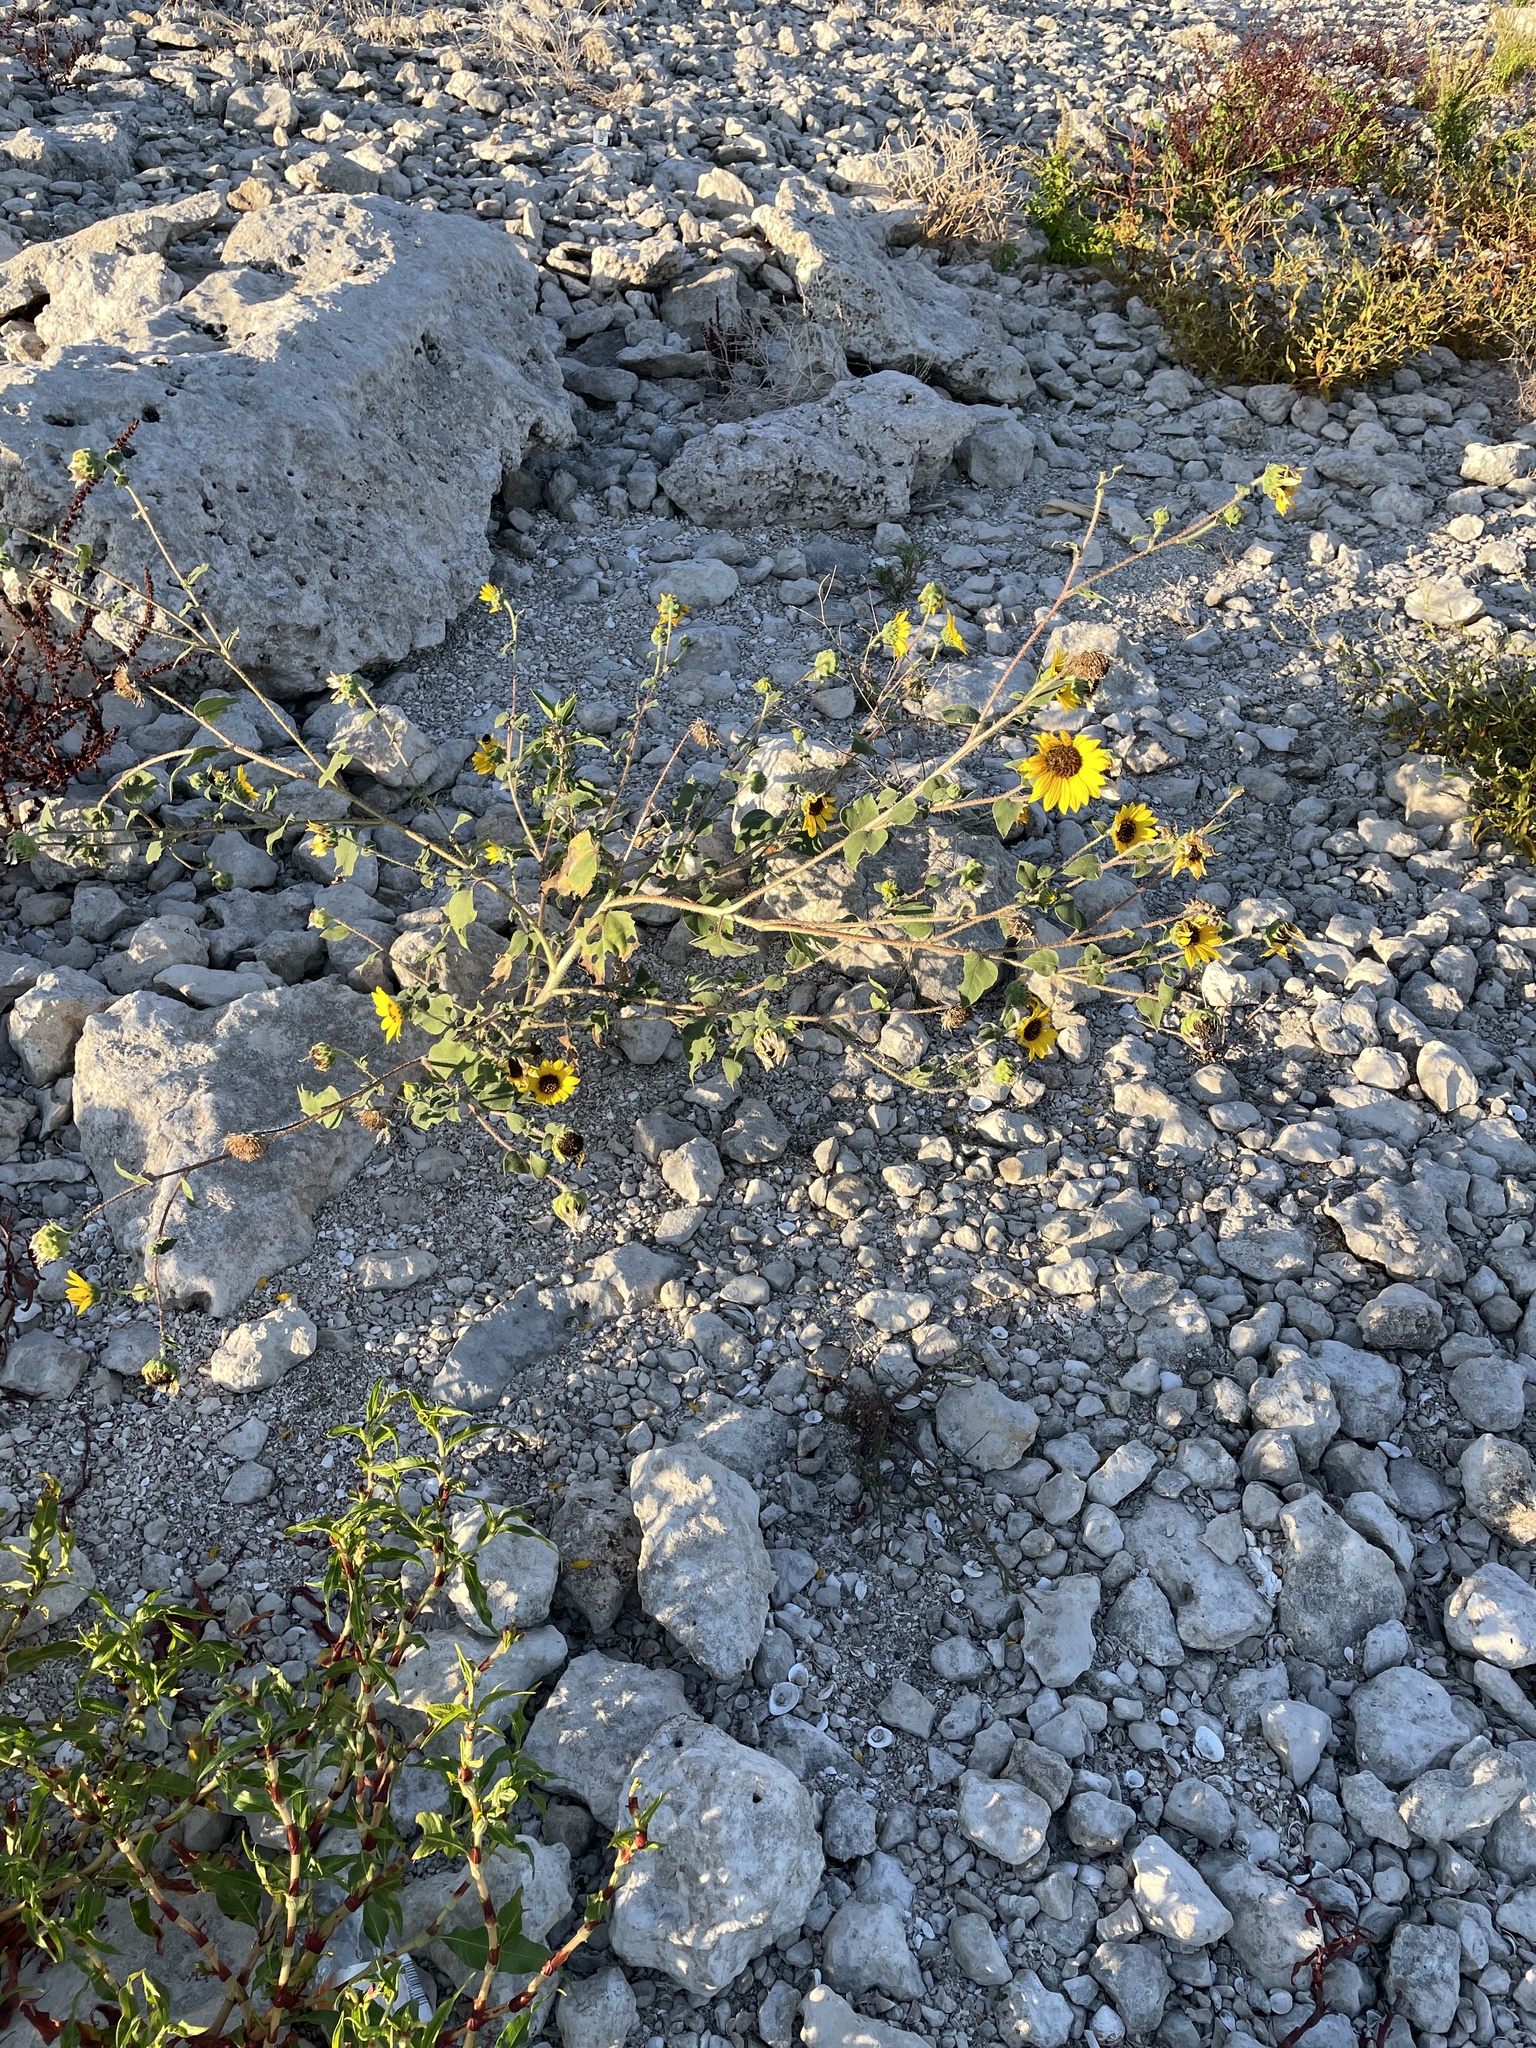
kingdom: Plantae
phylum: Tracheophyta
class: Magnoliopsida
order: Asterales
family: Asteraceae
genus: Helianthus
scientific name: Helianthus annuus
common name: Sunflower
